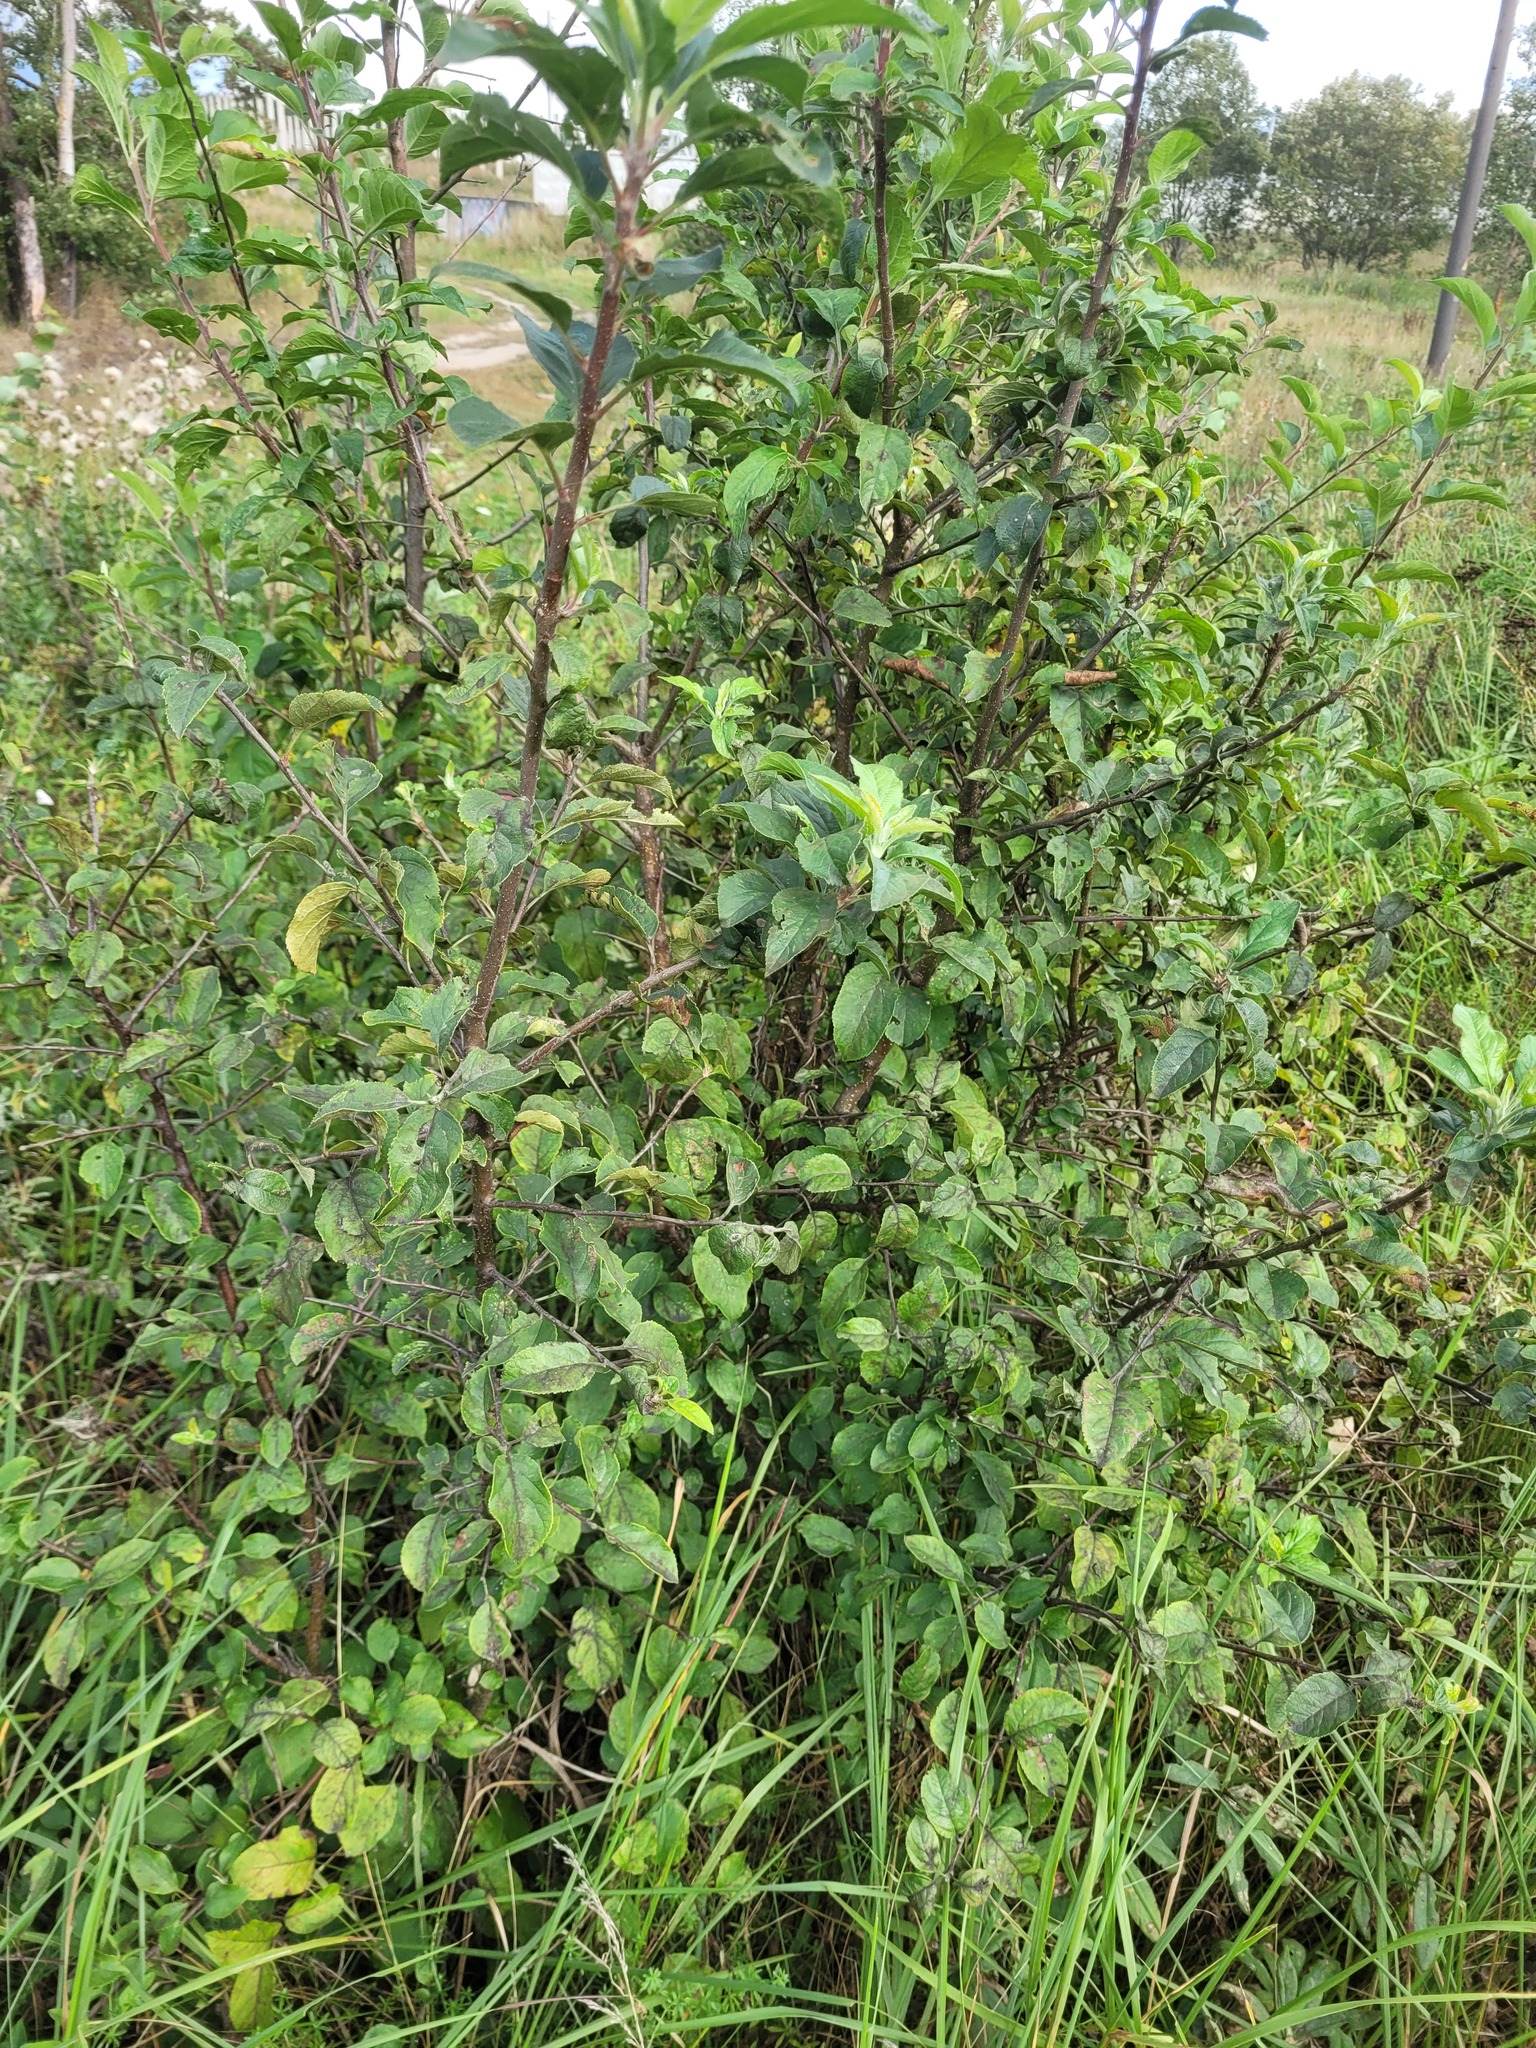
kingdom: Plantae
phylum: Tracheophyta
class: Magnoliopsida
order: Rosales
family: Rosaceae
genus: Malus
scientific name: Malus domestica
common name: Apple
